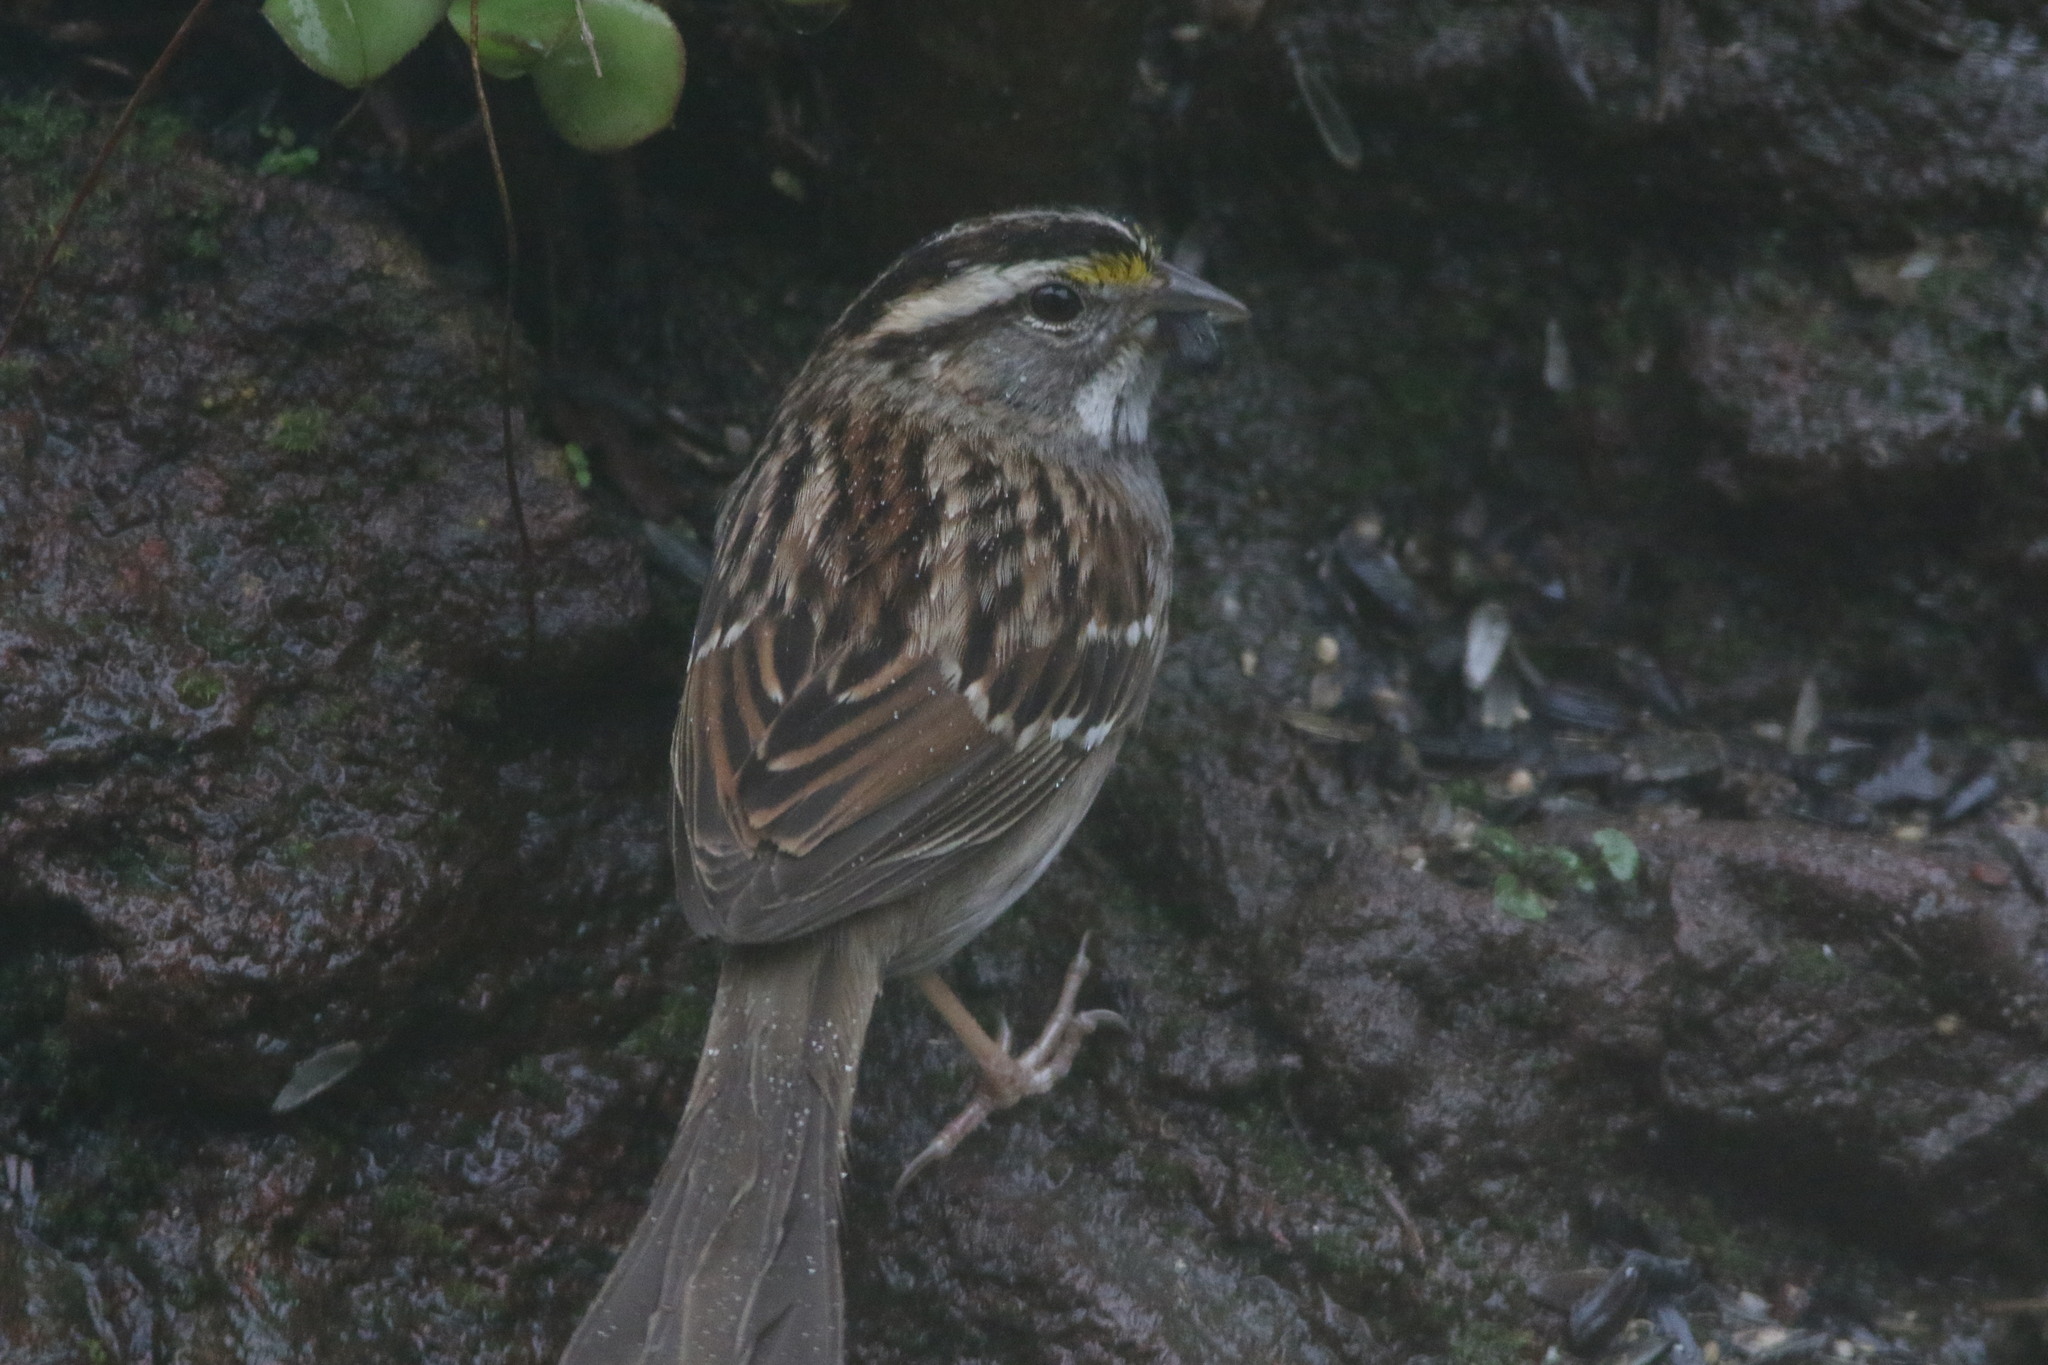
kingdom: Animalia
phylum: Chordata
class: Aves
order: Passeriformes
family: Passerellidae
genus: Zonotrichia
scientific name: Zonotrichia albicollis
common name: White-throated sparrow
